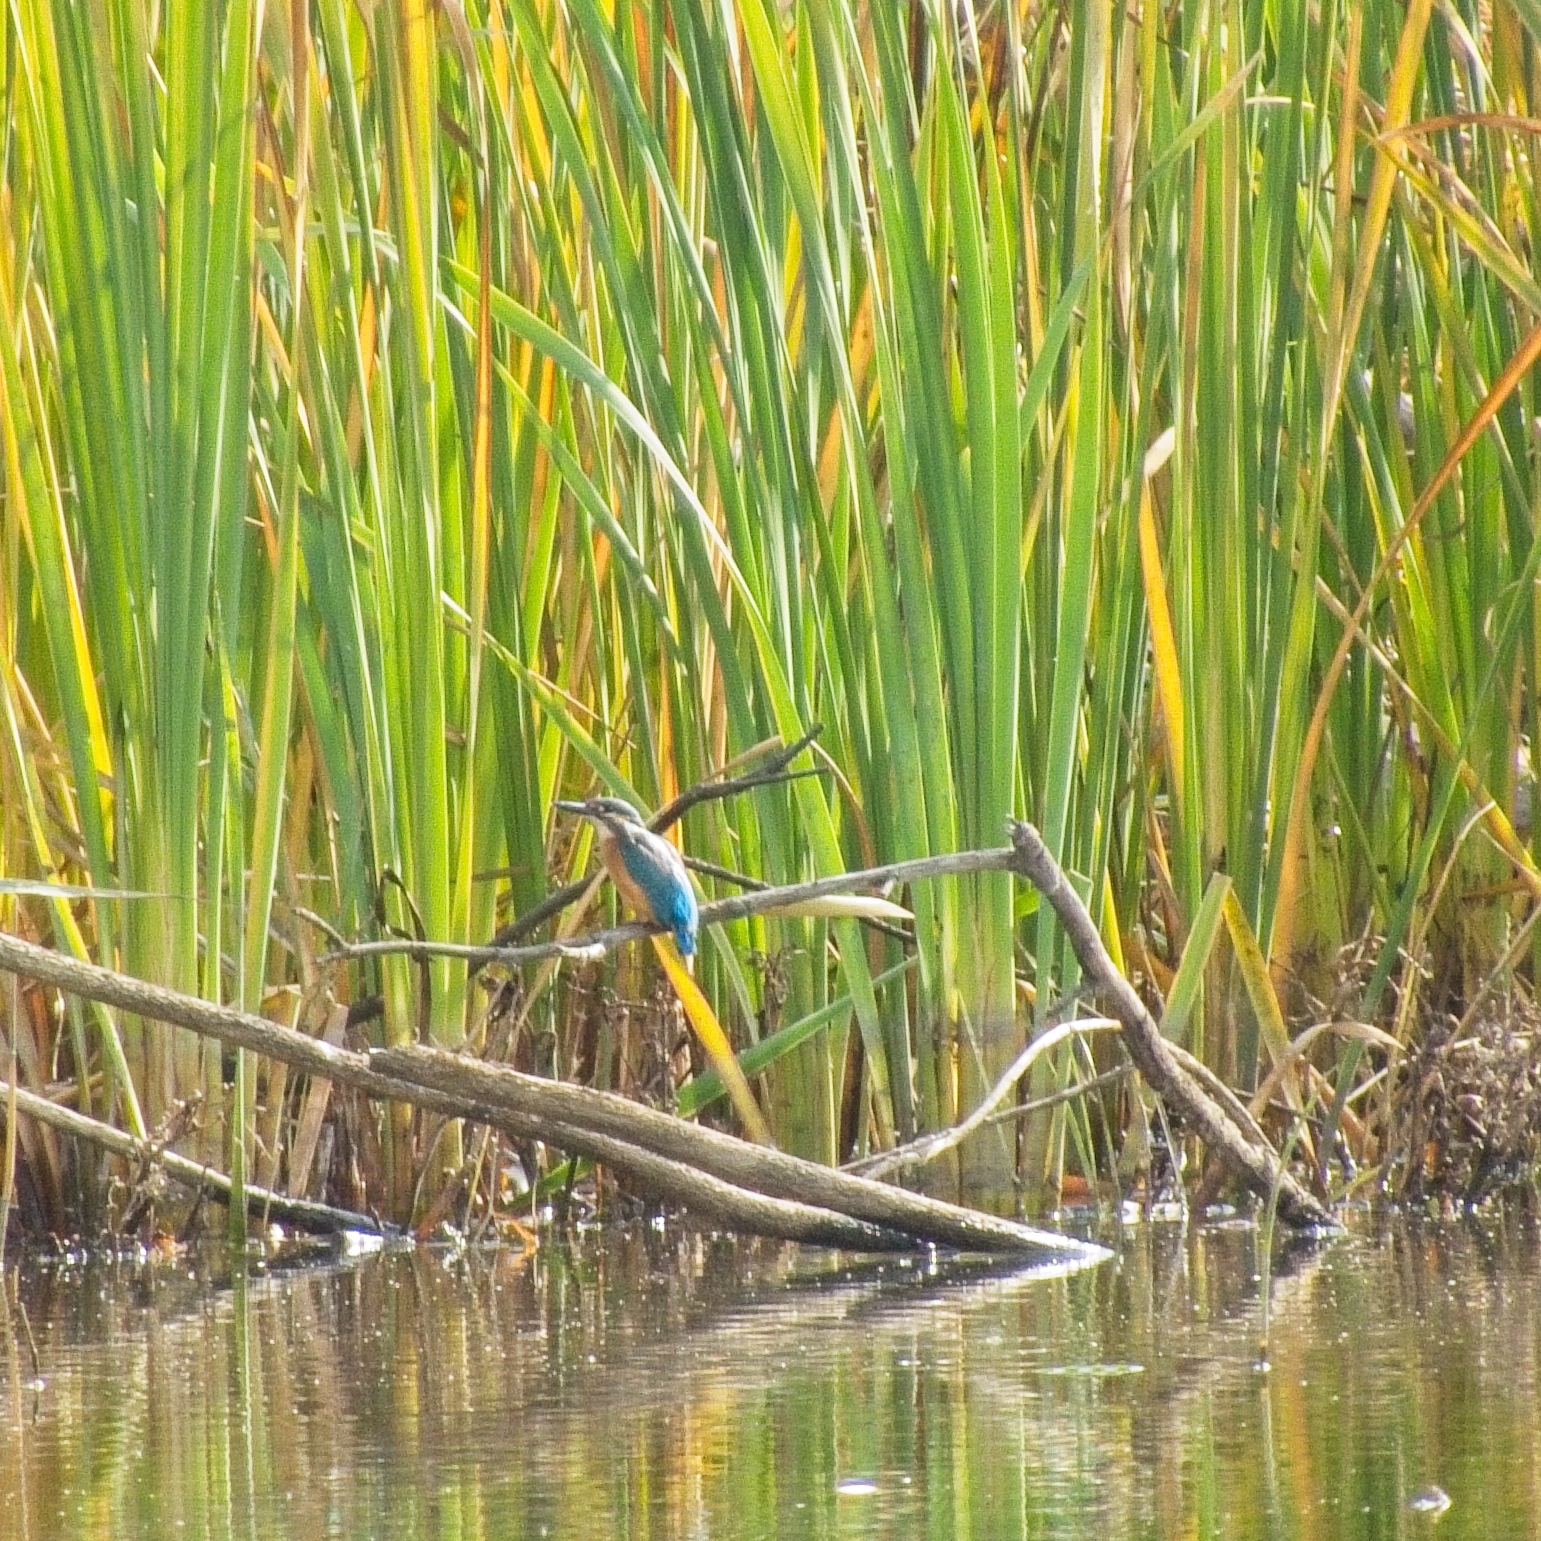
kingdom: Animalia
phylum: Chordata
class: Aves
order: Coraciiformes
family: Alcedinidae
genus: Alcedo
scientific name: Alcedo atthis
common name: Common kingfisher
